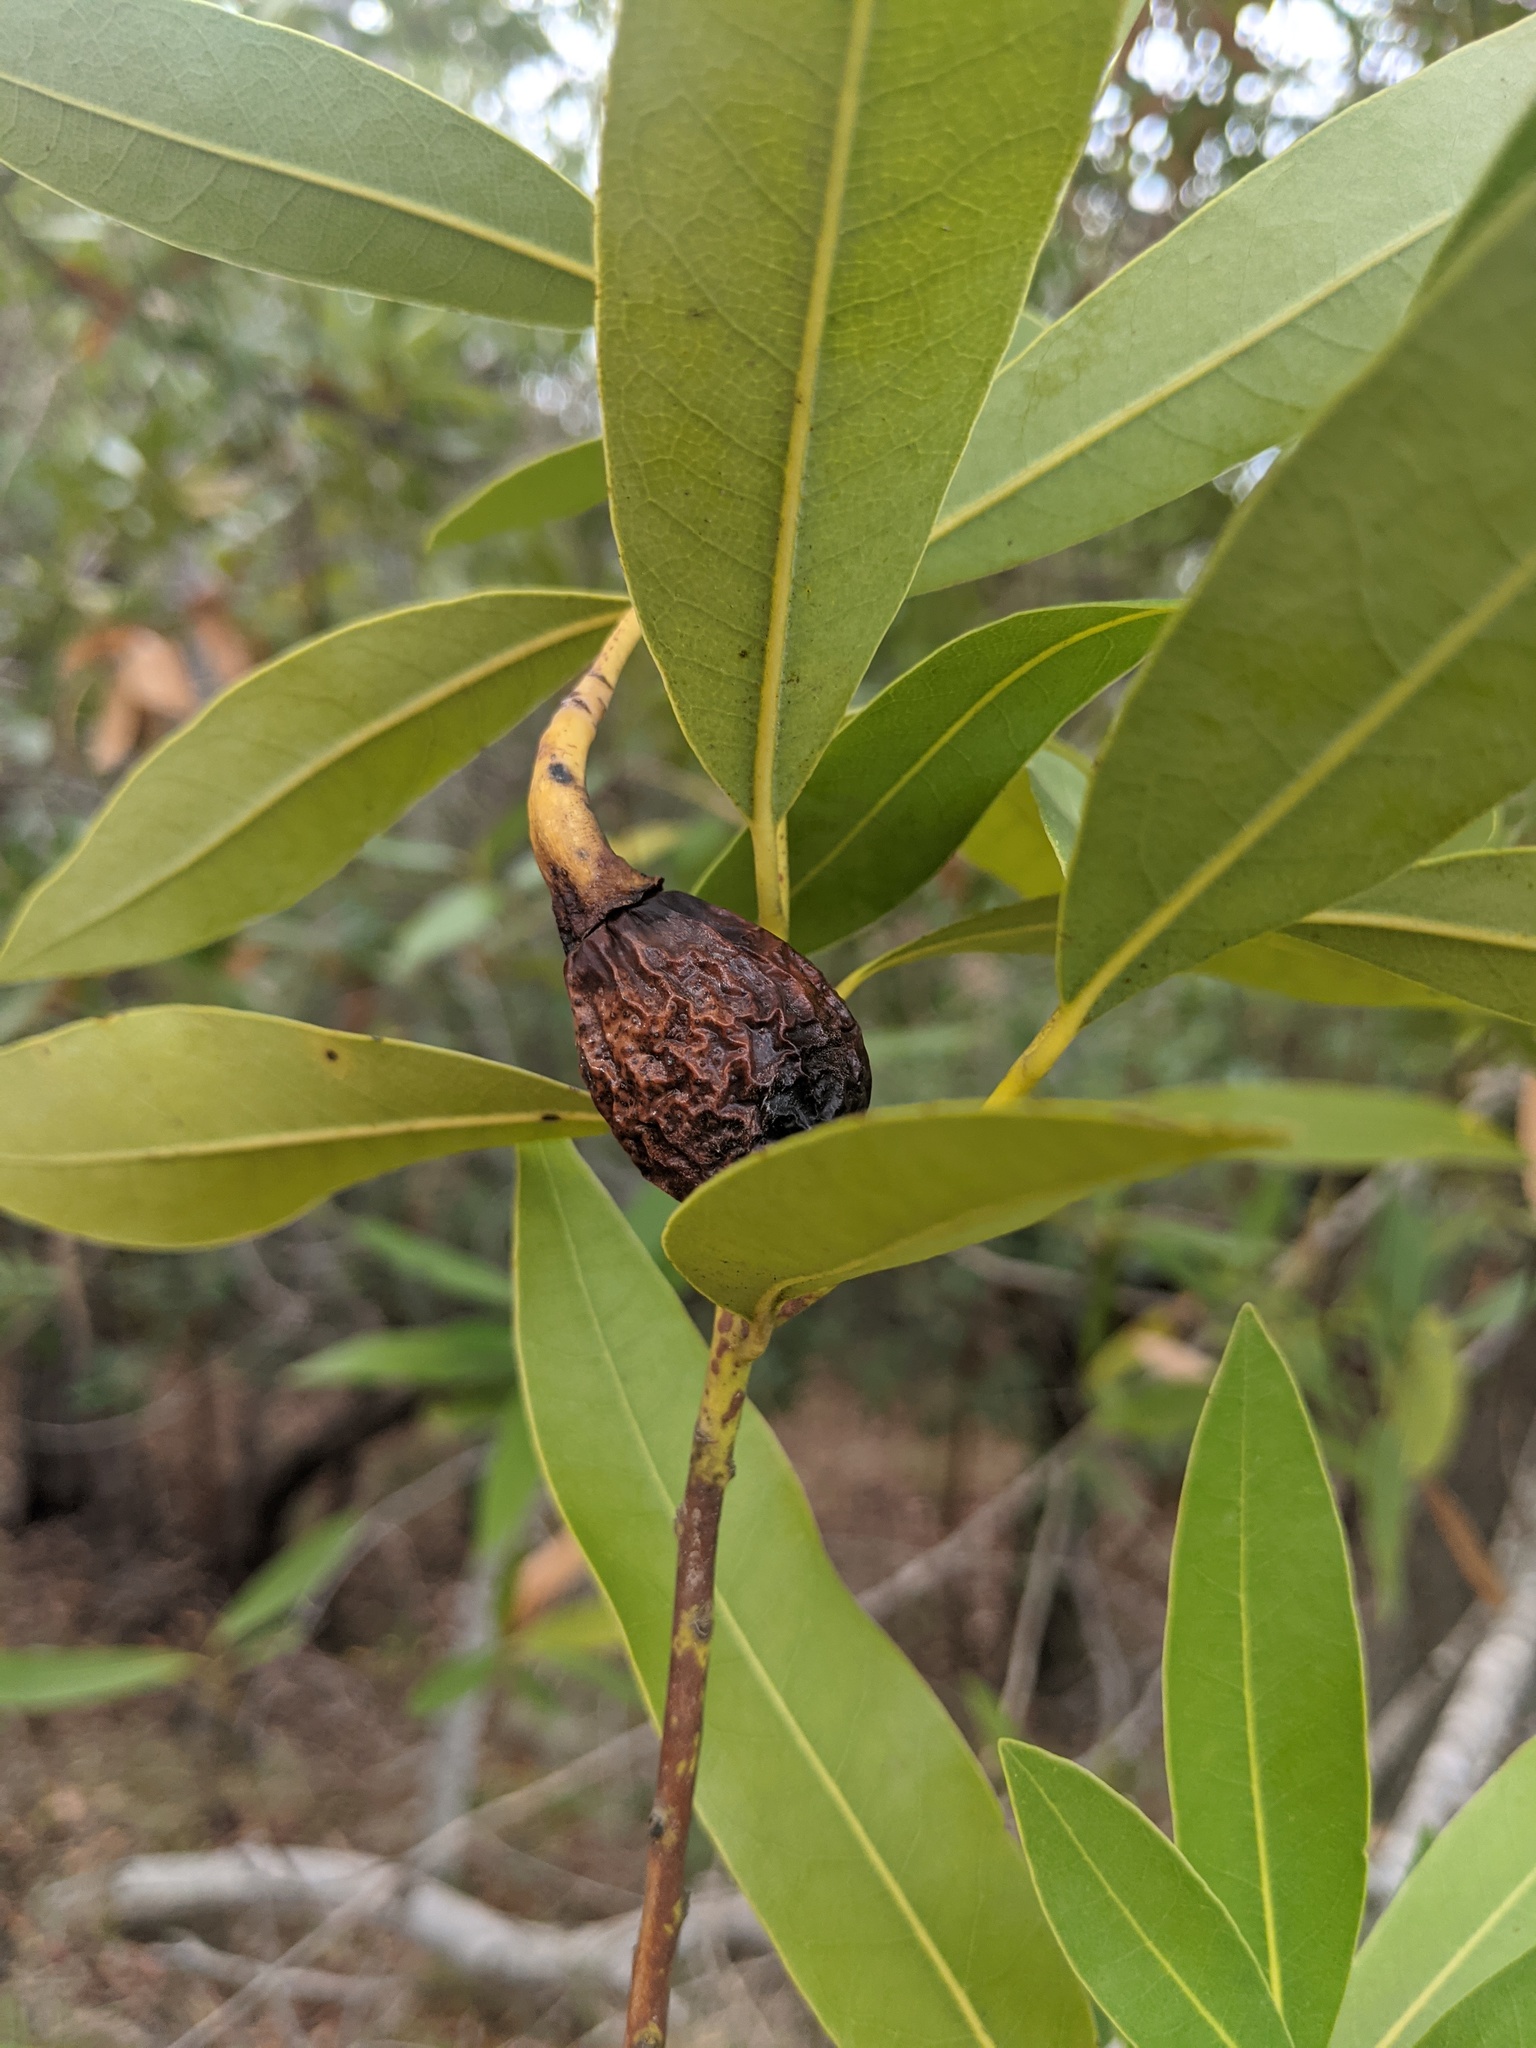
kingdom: Plantae
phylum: Tracheophyta
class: Magnoliopsida
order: Laurales
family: Lauraceae
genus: Umbellularia
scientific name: Umbellularia californica
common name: California bay
